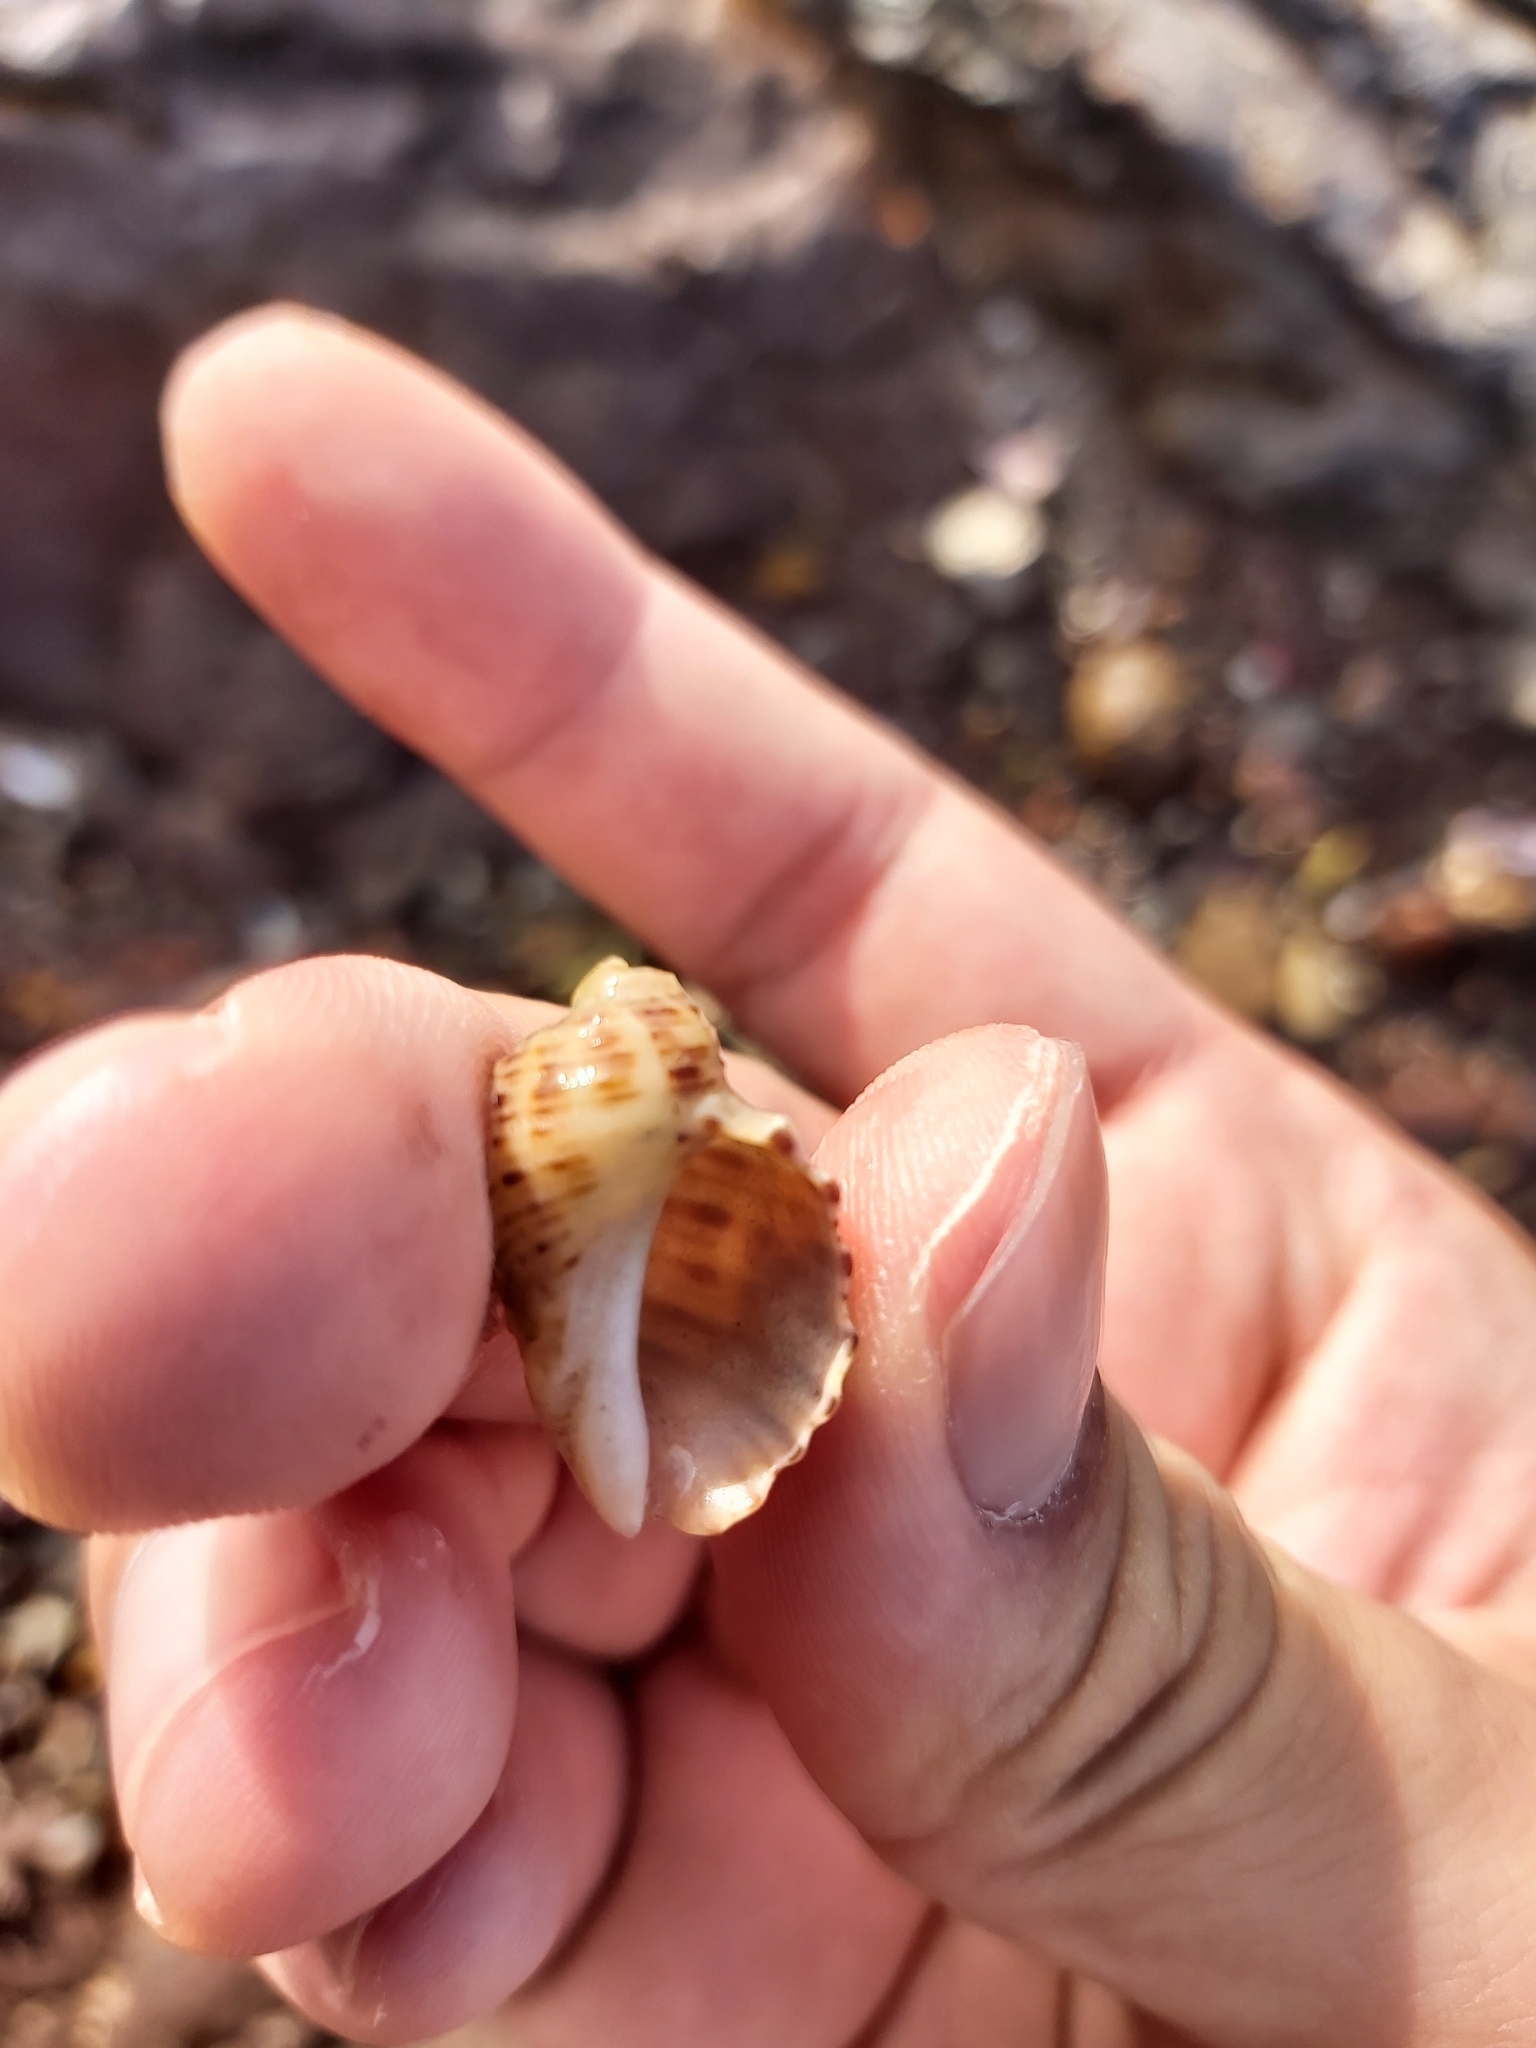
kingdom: Animalia
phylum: Mollusca
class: Gastropoda
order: Neogastropoda
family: Muricidae
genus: Dicathais
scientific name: Dicathais orbita
